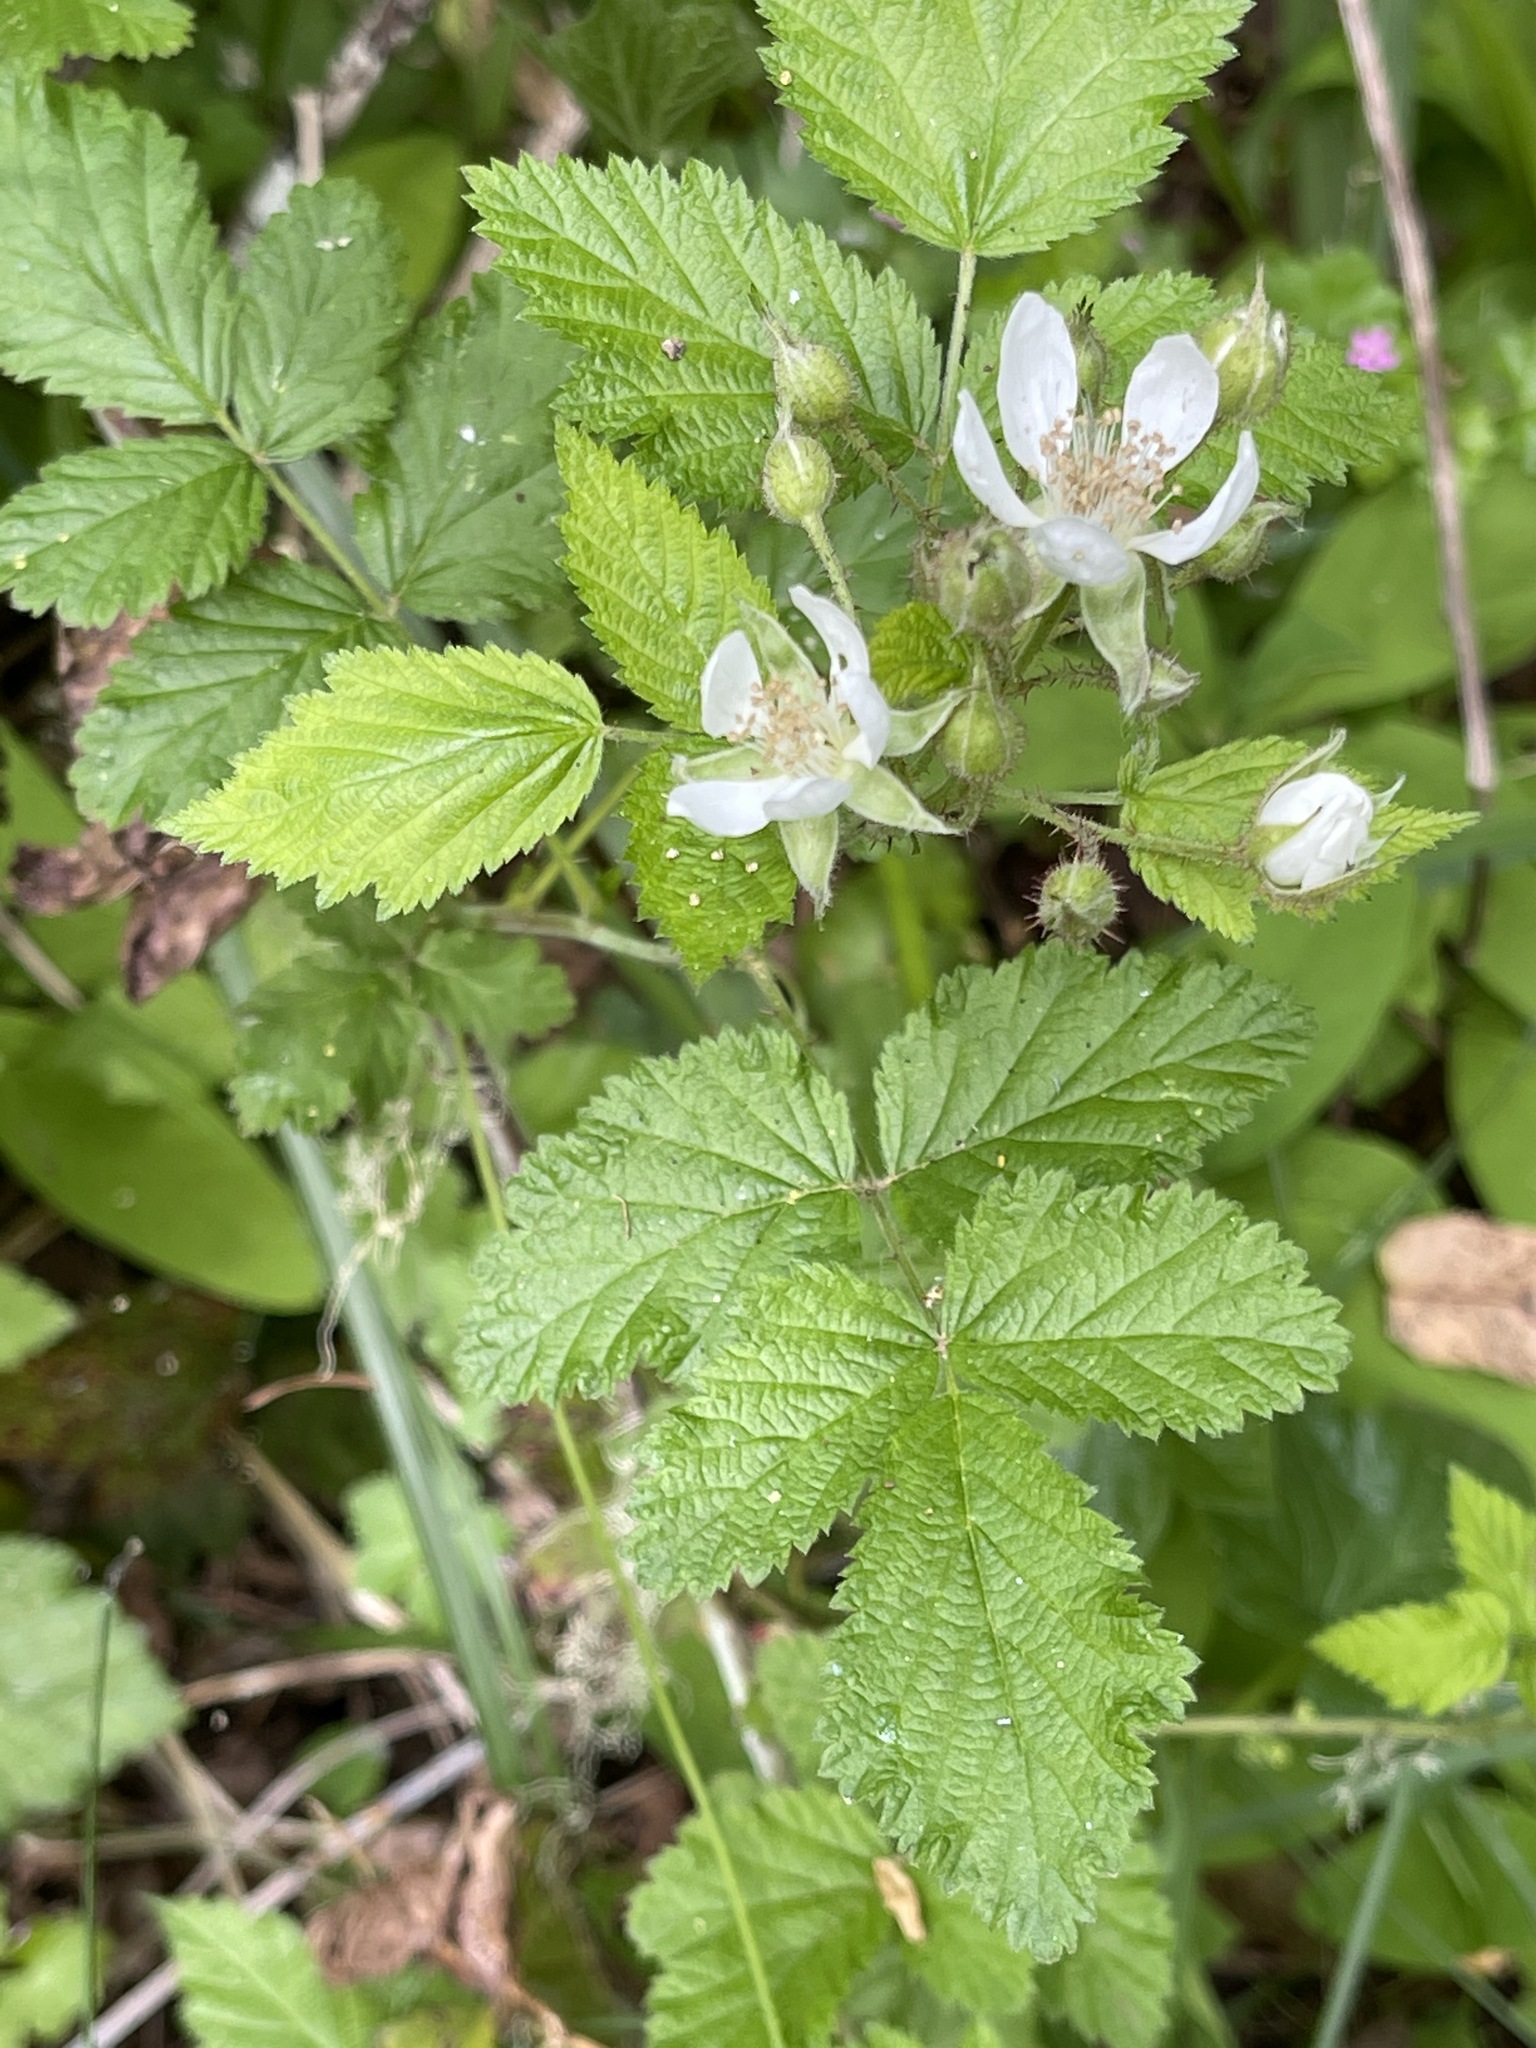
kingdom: Plantae
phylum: Tracheophyta
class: Magnoliopsida
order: Rosales
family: Rosaceae
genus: Rubus
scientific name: Rubus ursinus
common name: Pacific blackberry
